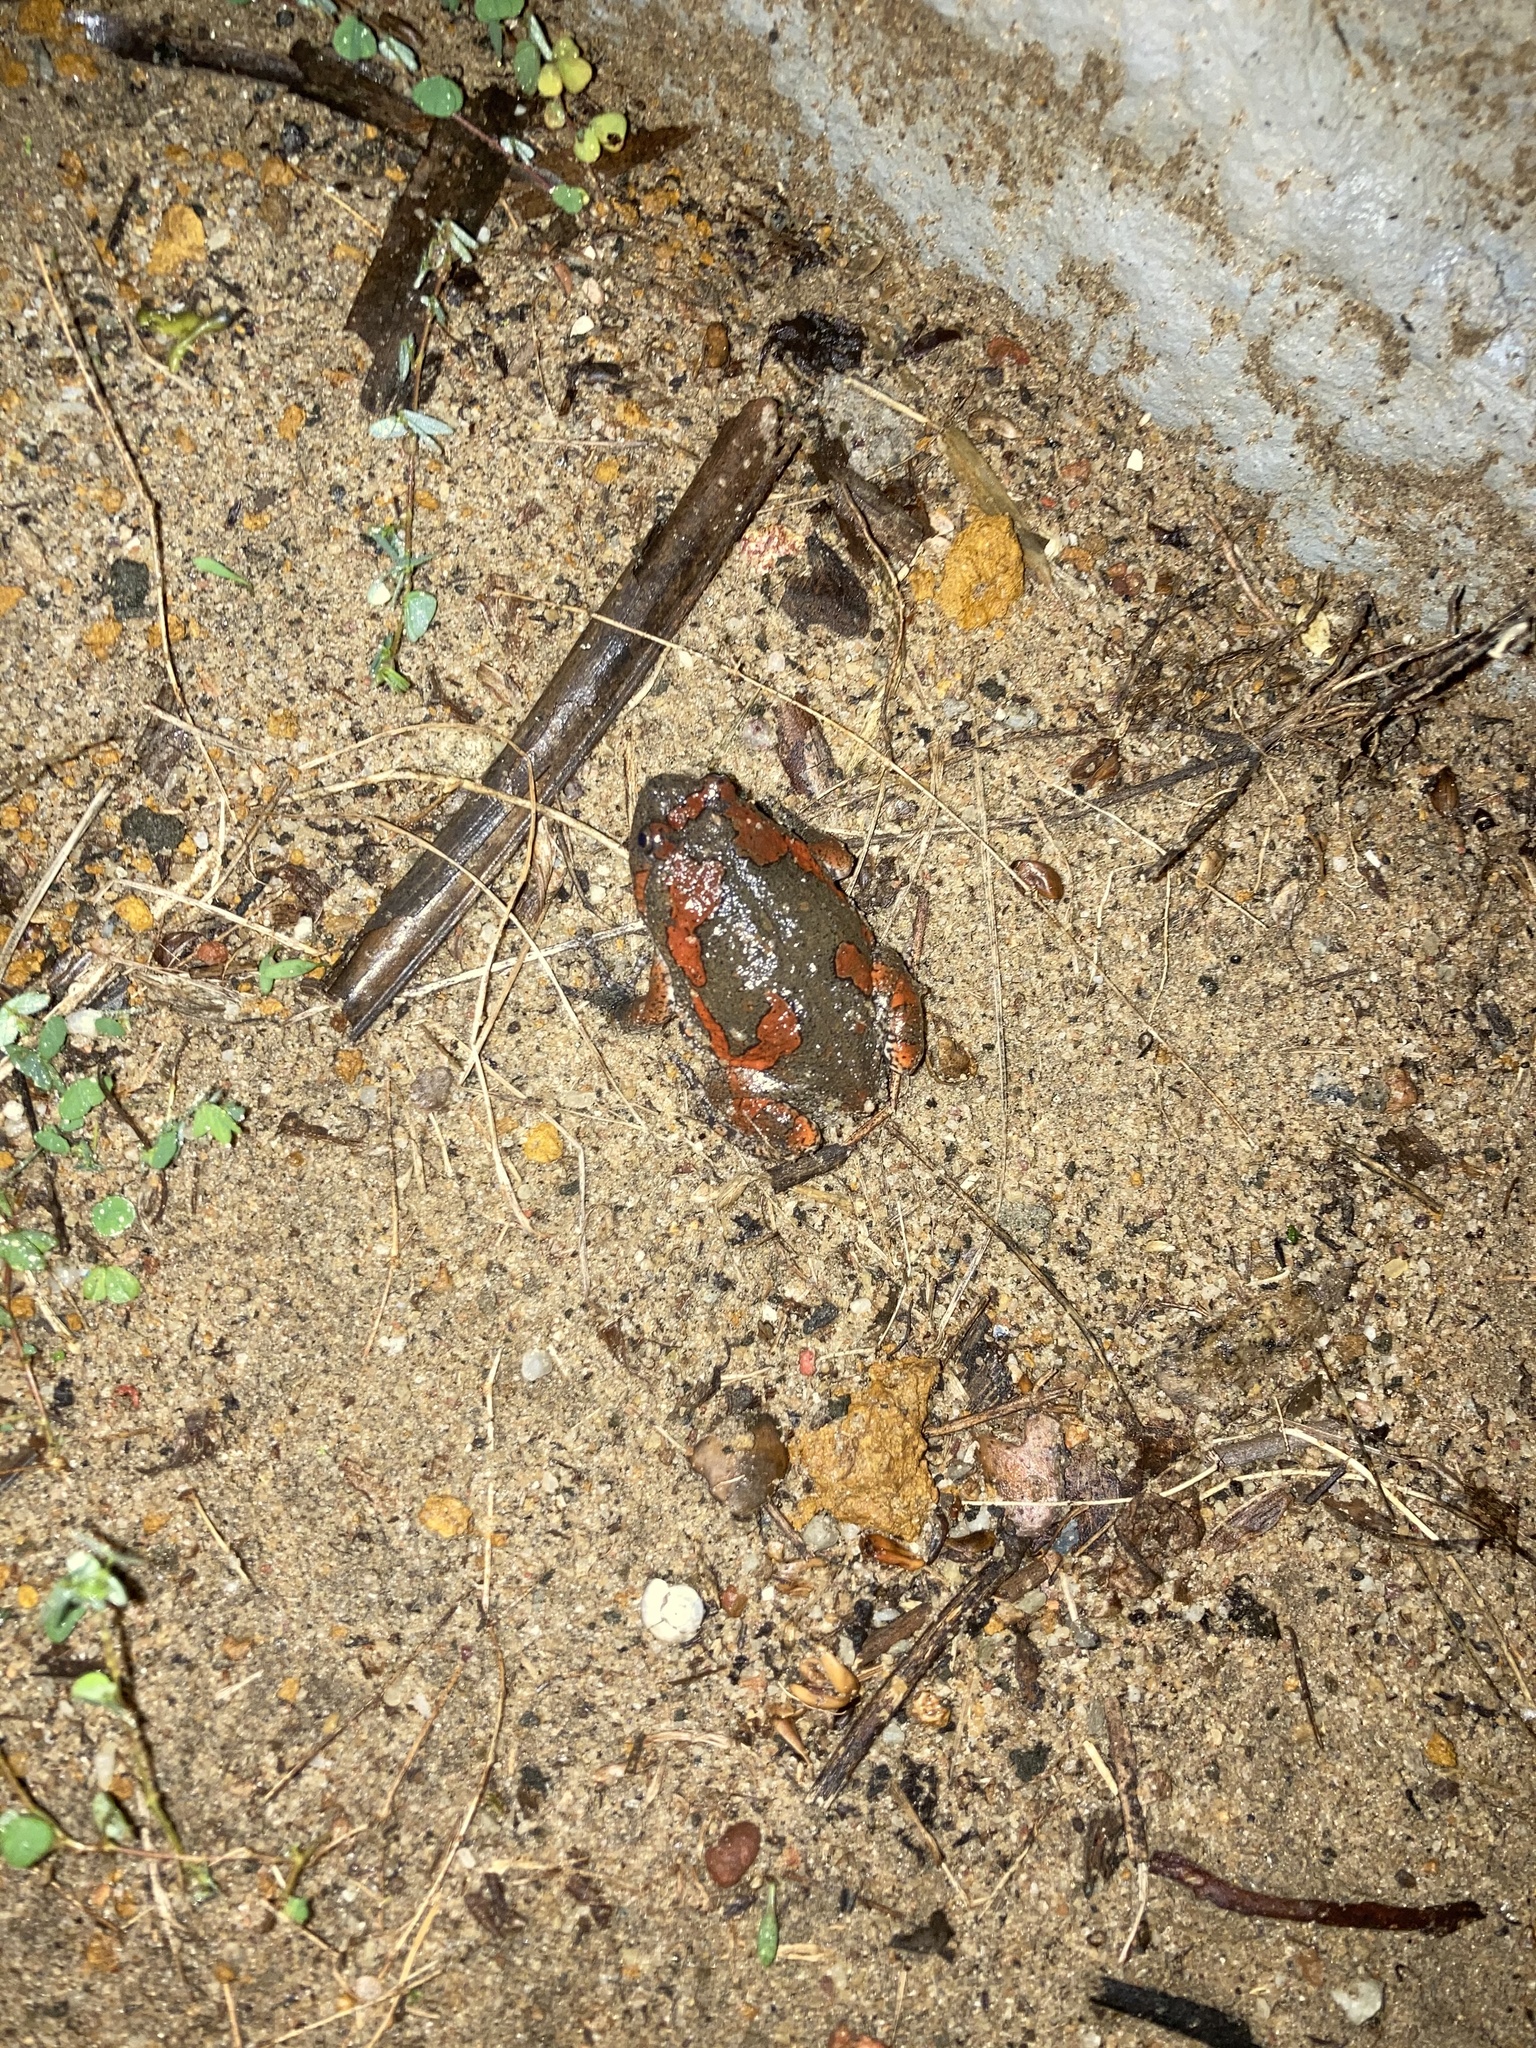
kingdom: Animalia
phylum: Chordata
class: Amphibia
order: Anura
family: Microhylidae
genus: Uperodon
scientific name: Uperodon taprobanicus
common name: Ceylon kaloula
